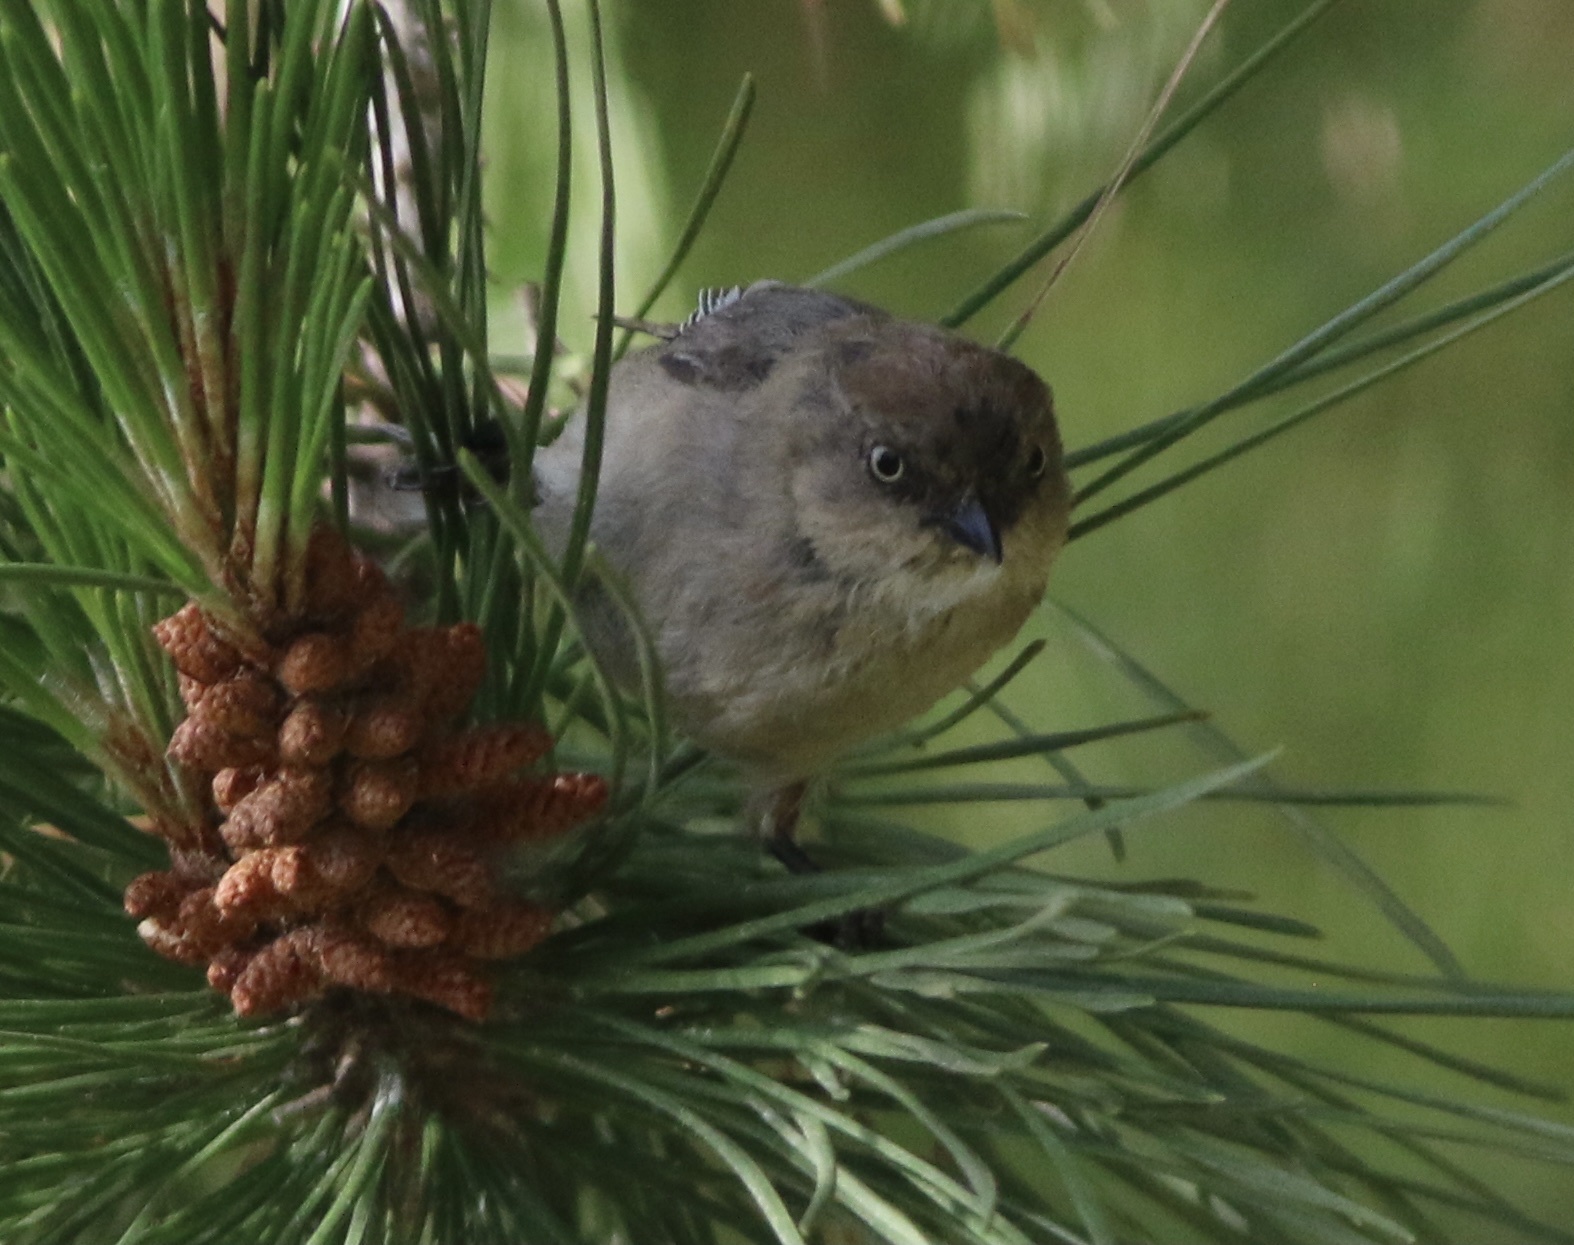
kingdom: Animalia
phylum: Chordata
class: Aves
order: Passeriformes
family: Aegithalidae
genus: Psaltriparus
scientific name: Psaltriparus minimus
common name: American bushtit
